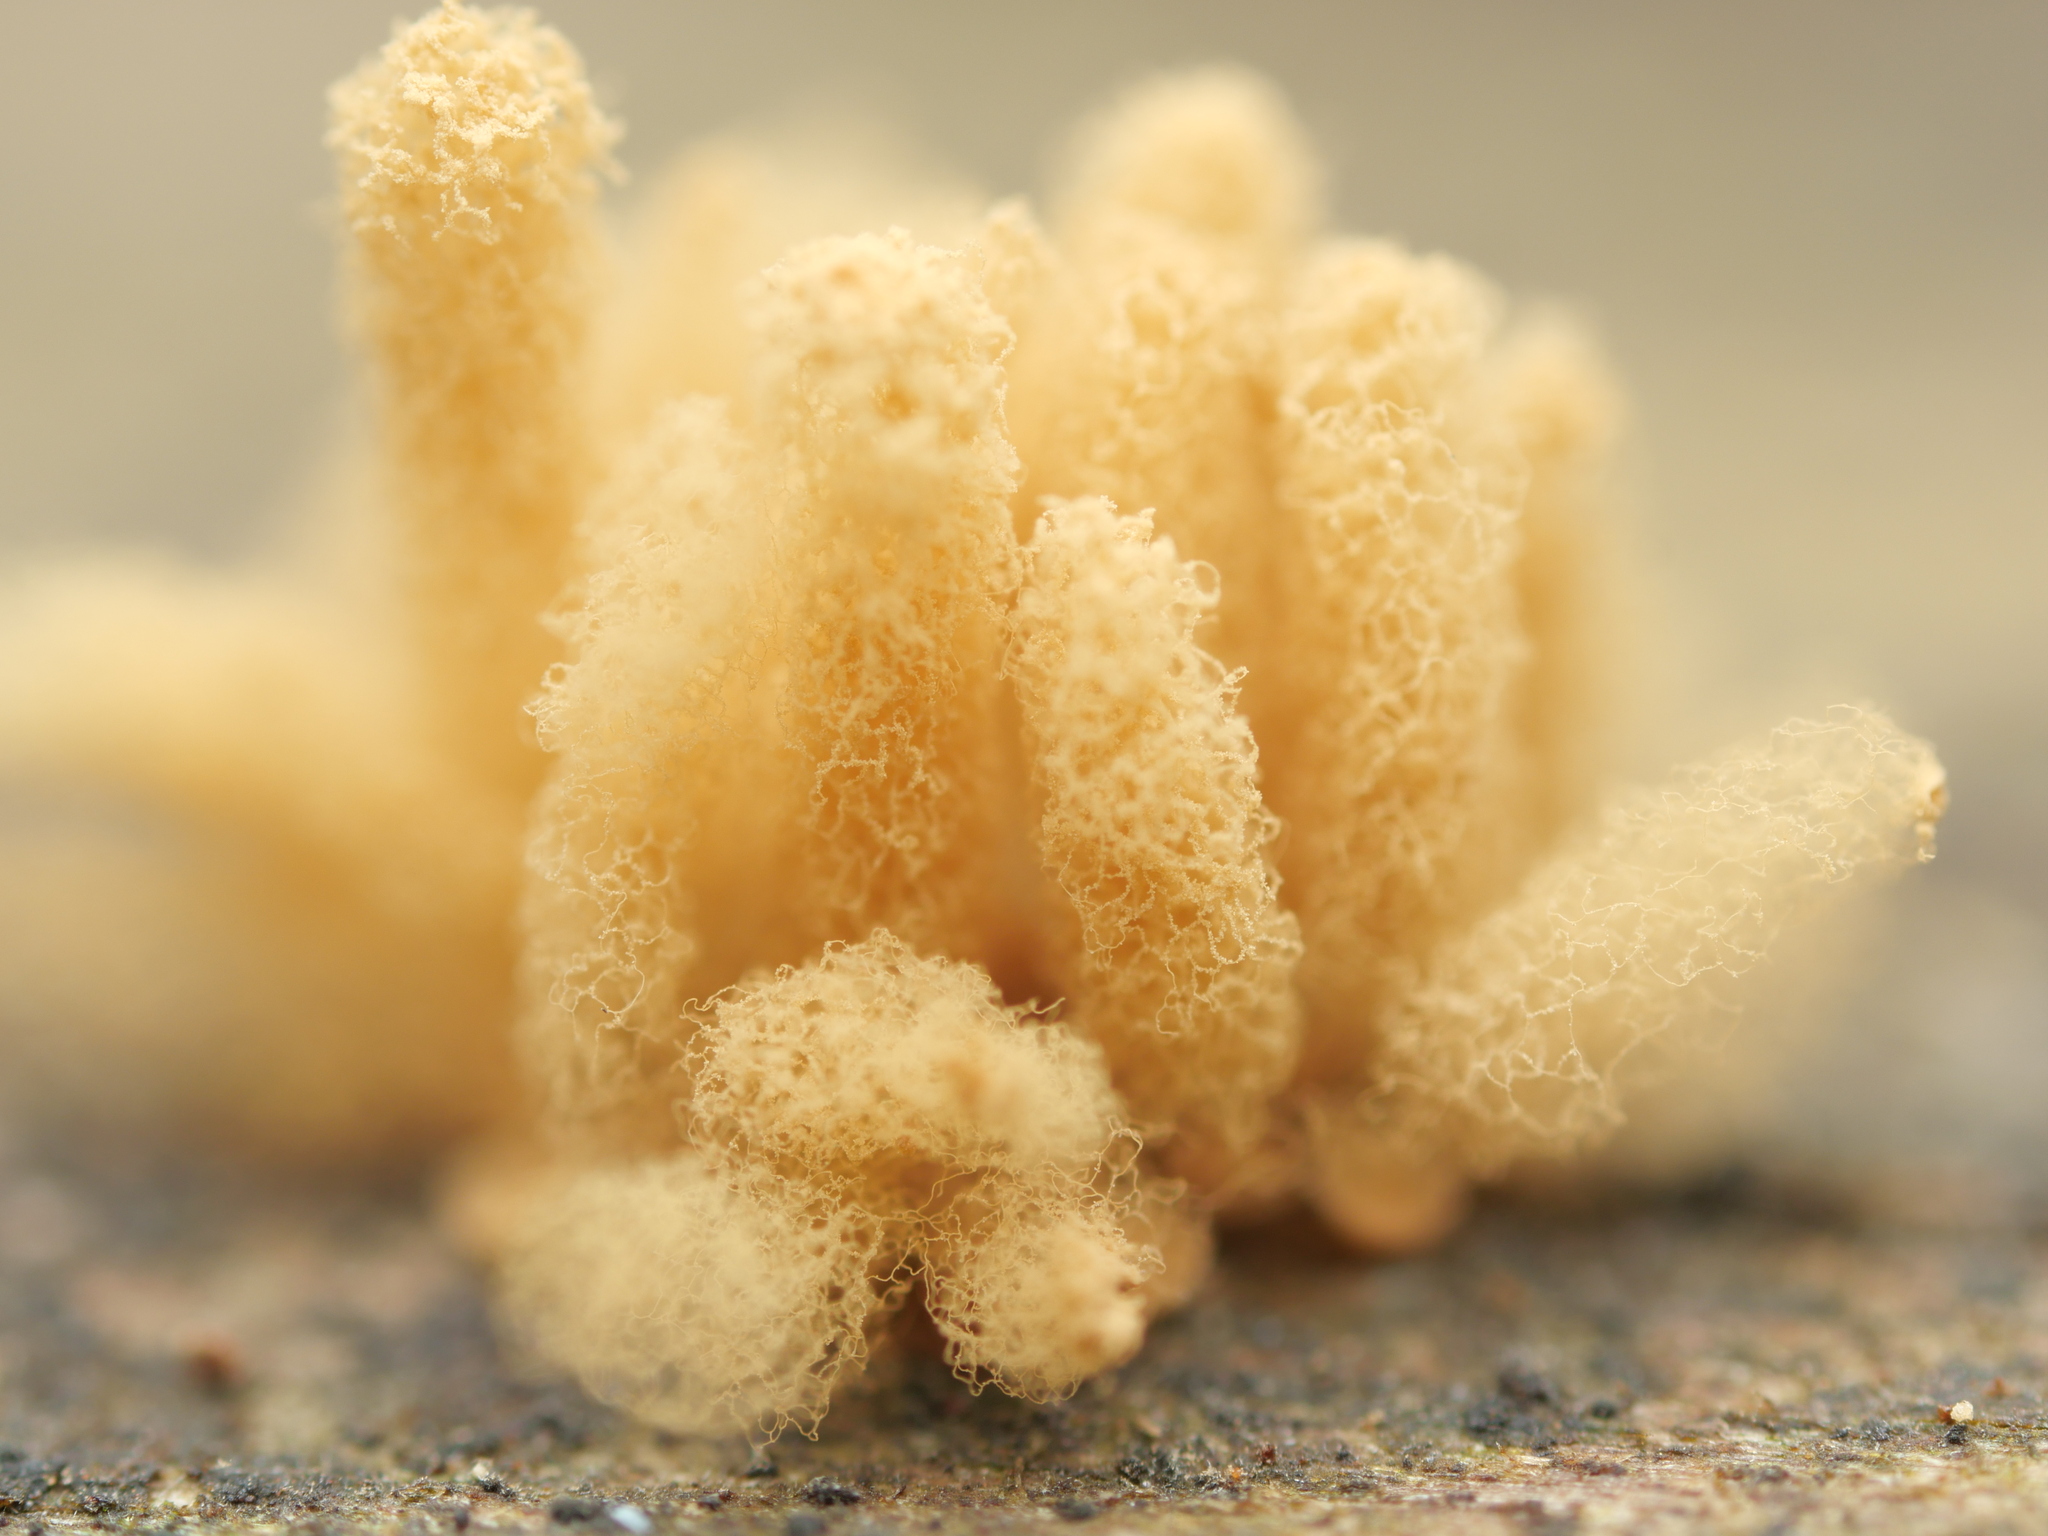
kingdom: Protozoa
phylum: Mycetozoa
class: Myxomycetes
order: Trichiales
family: Arcyriaceae
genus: Arcyria
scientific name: Arcyria obvelata
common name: Yellow carnival candy slime
